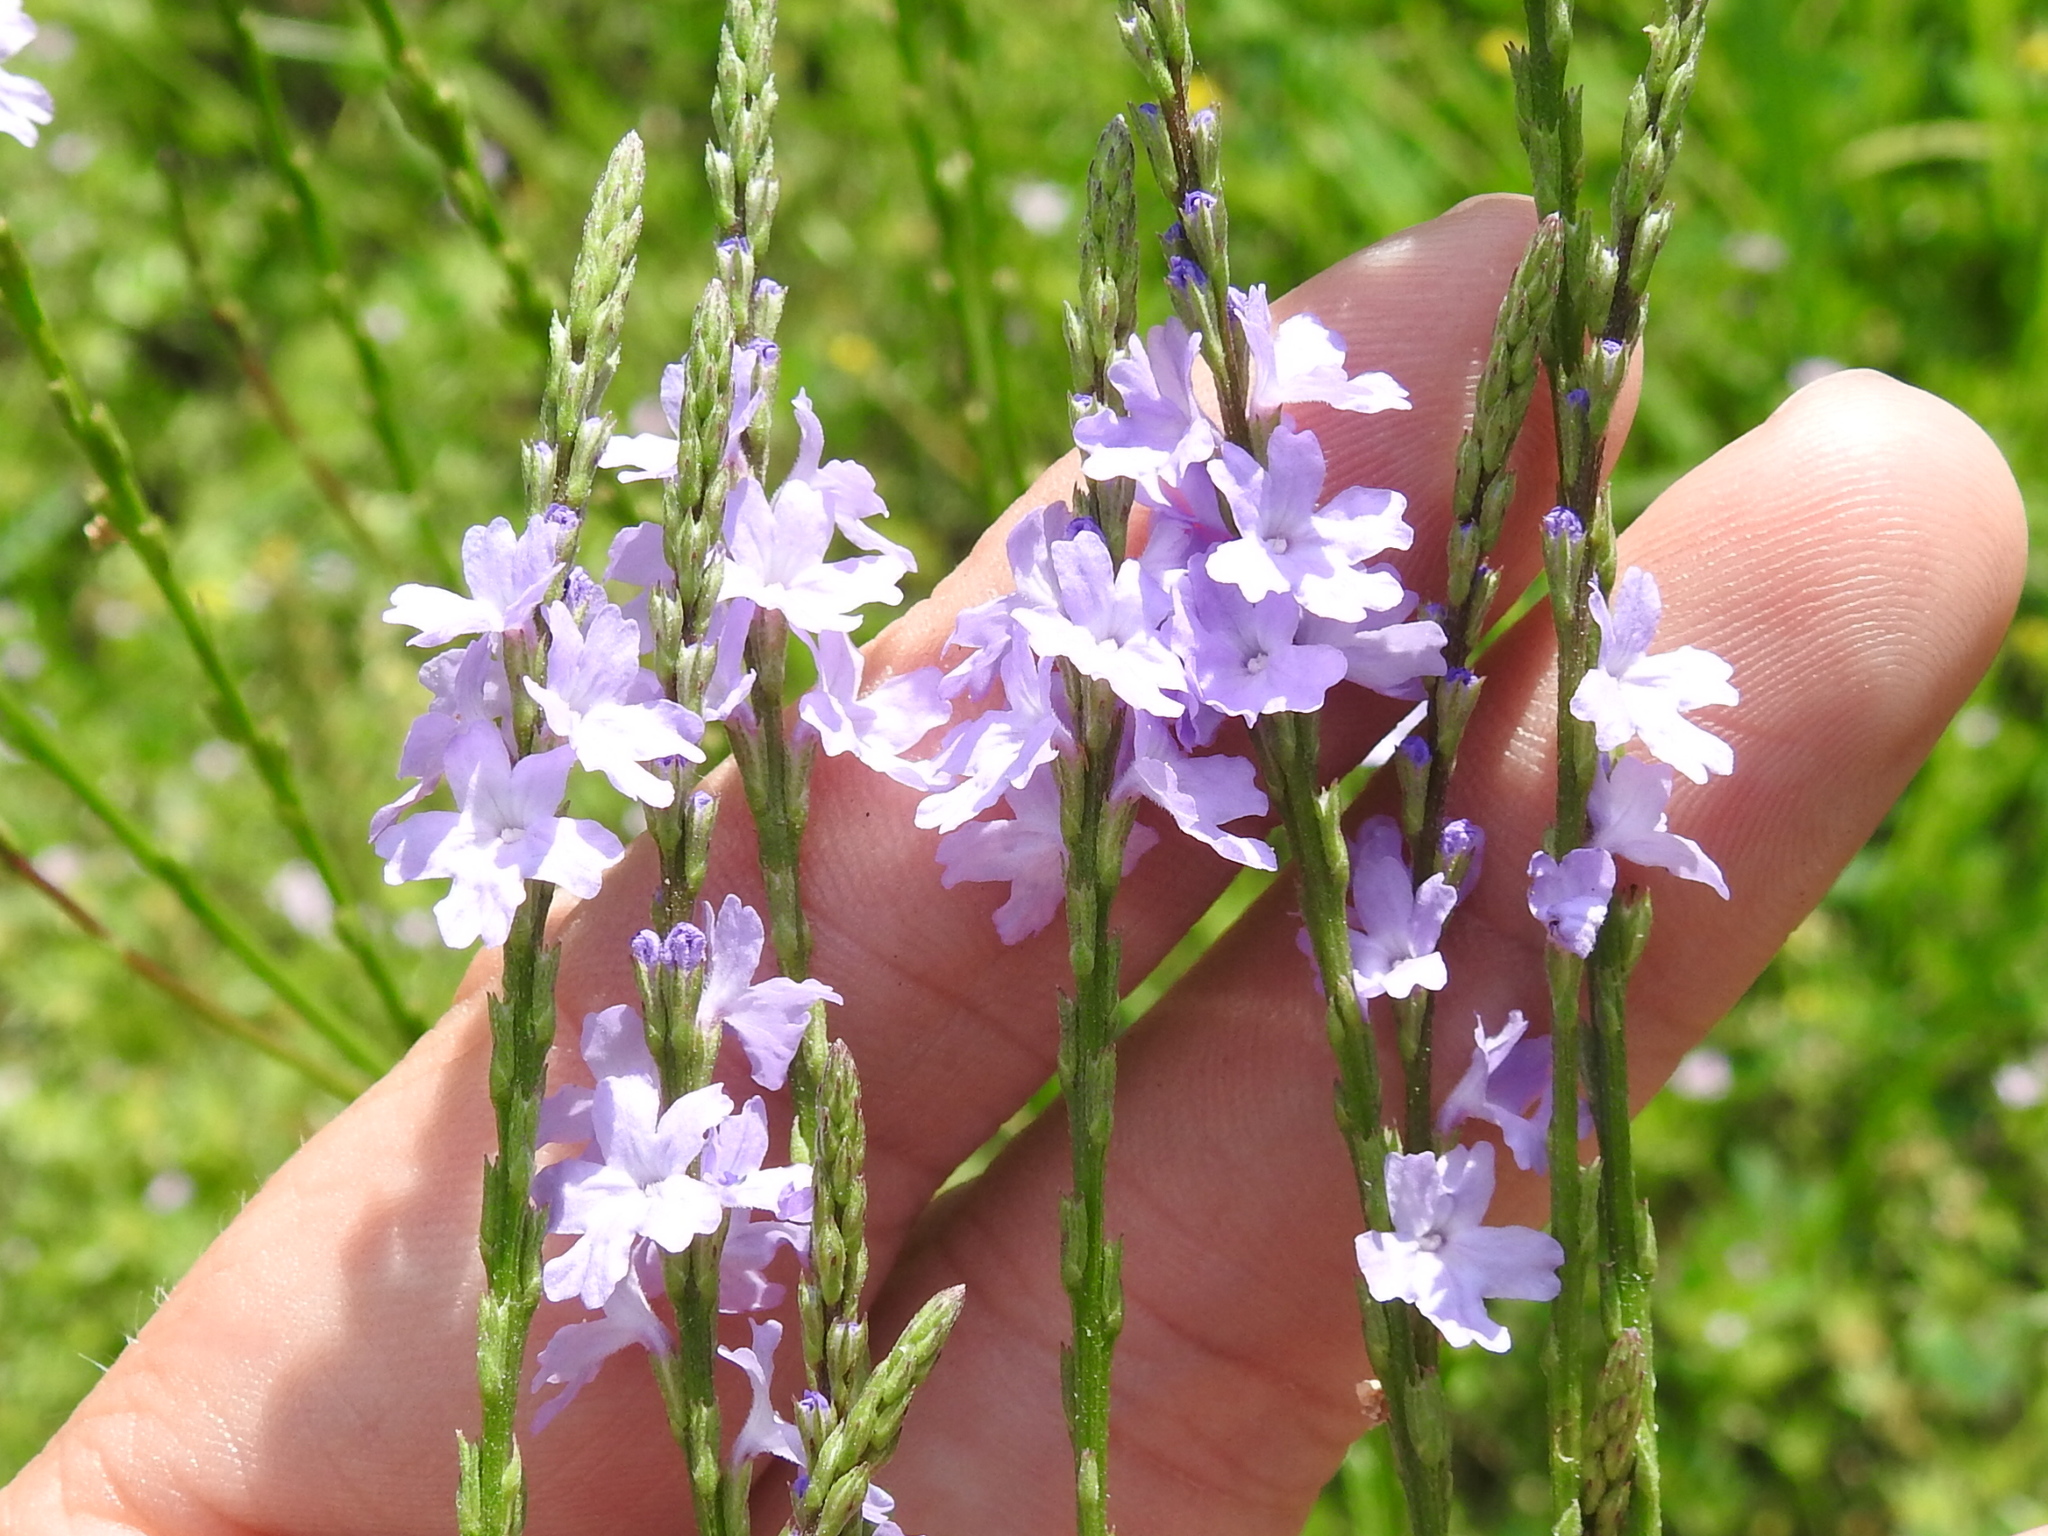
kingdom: Plantae
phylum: Tracheophyta
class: Magnoliopsida
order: Lamiales
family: Verbenaceae
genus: Verbena
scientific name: Verbena halei
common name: Texas vervain
